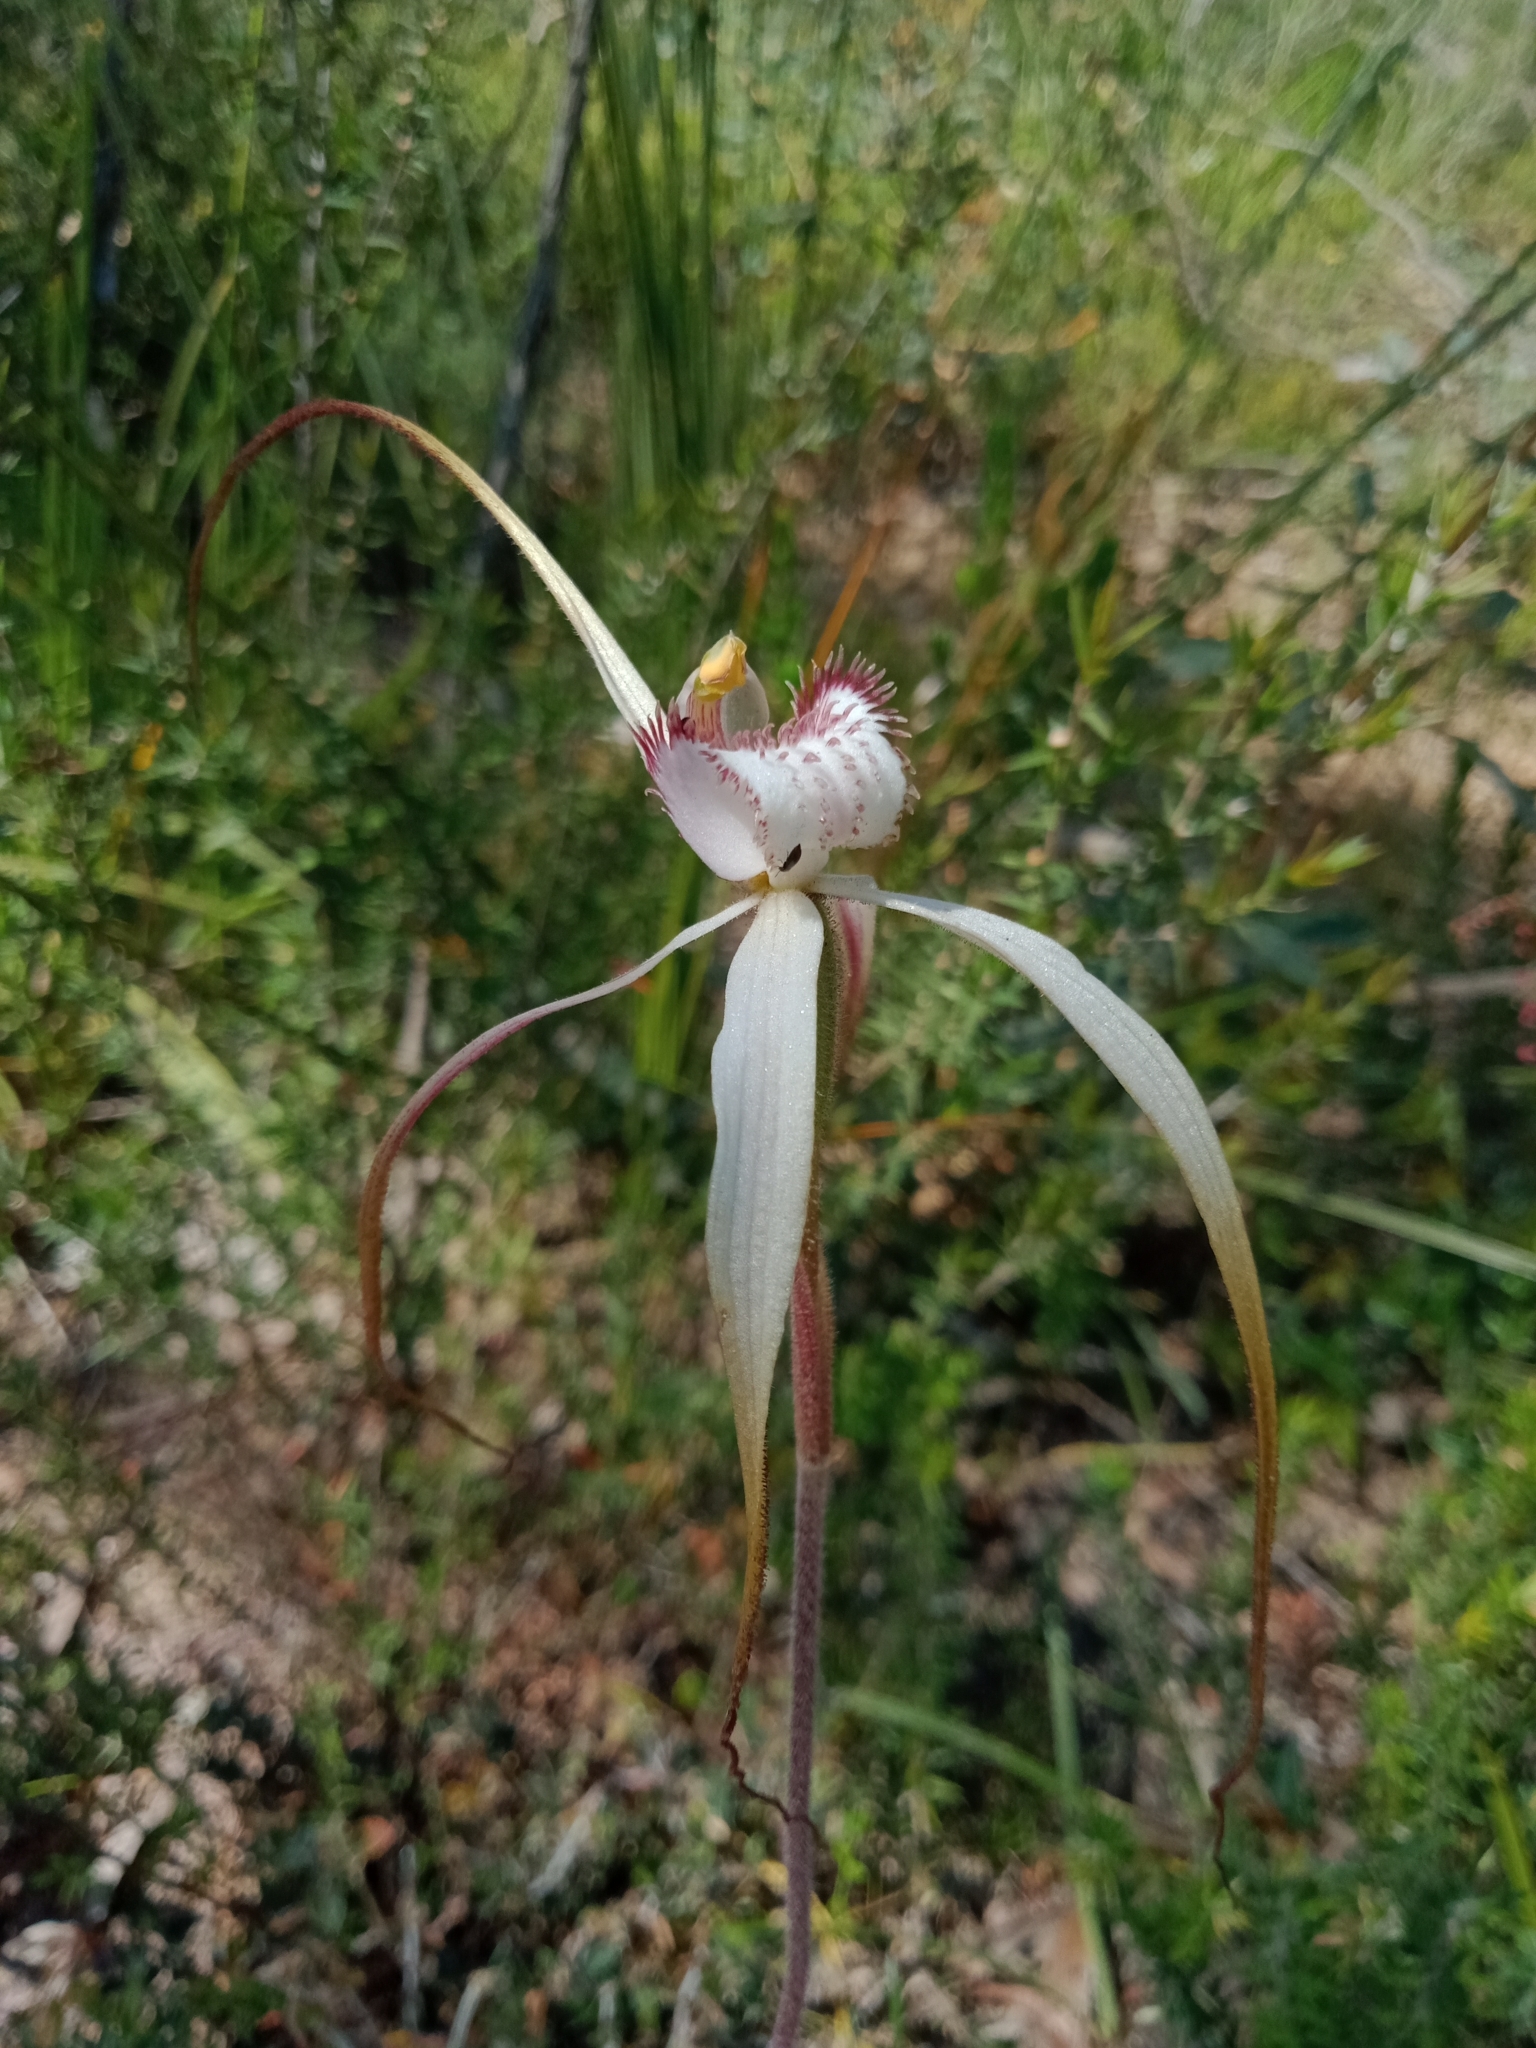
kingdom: Plantae
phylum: Tracheophyta
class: Liliopsida
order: Asparagales
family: Orchidaceae
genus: Caladenia
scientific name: Caladenia venusta
